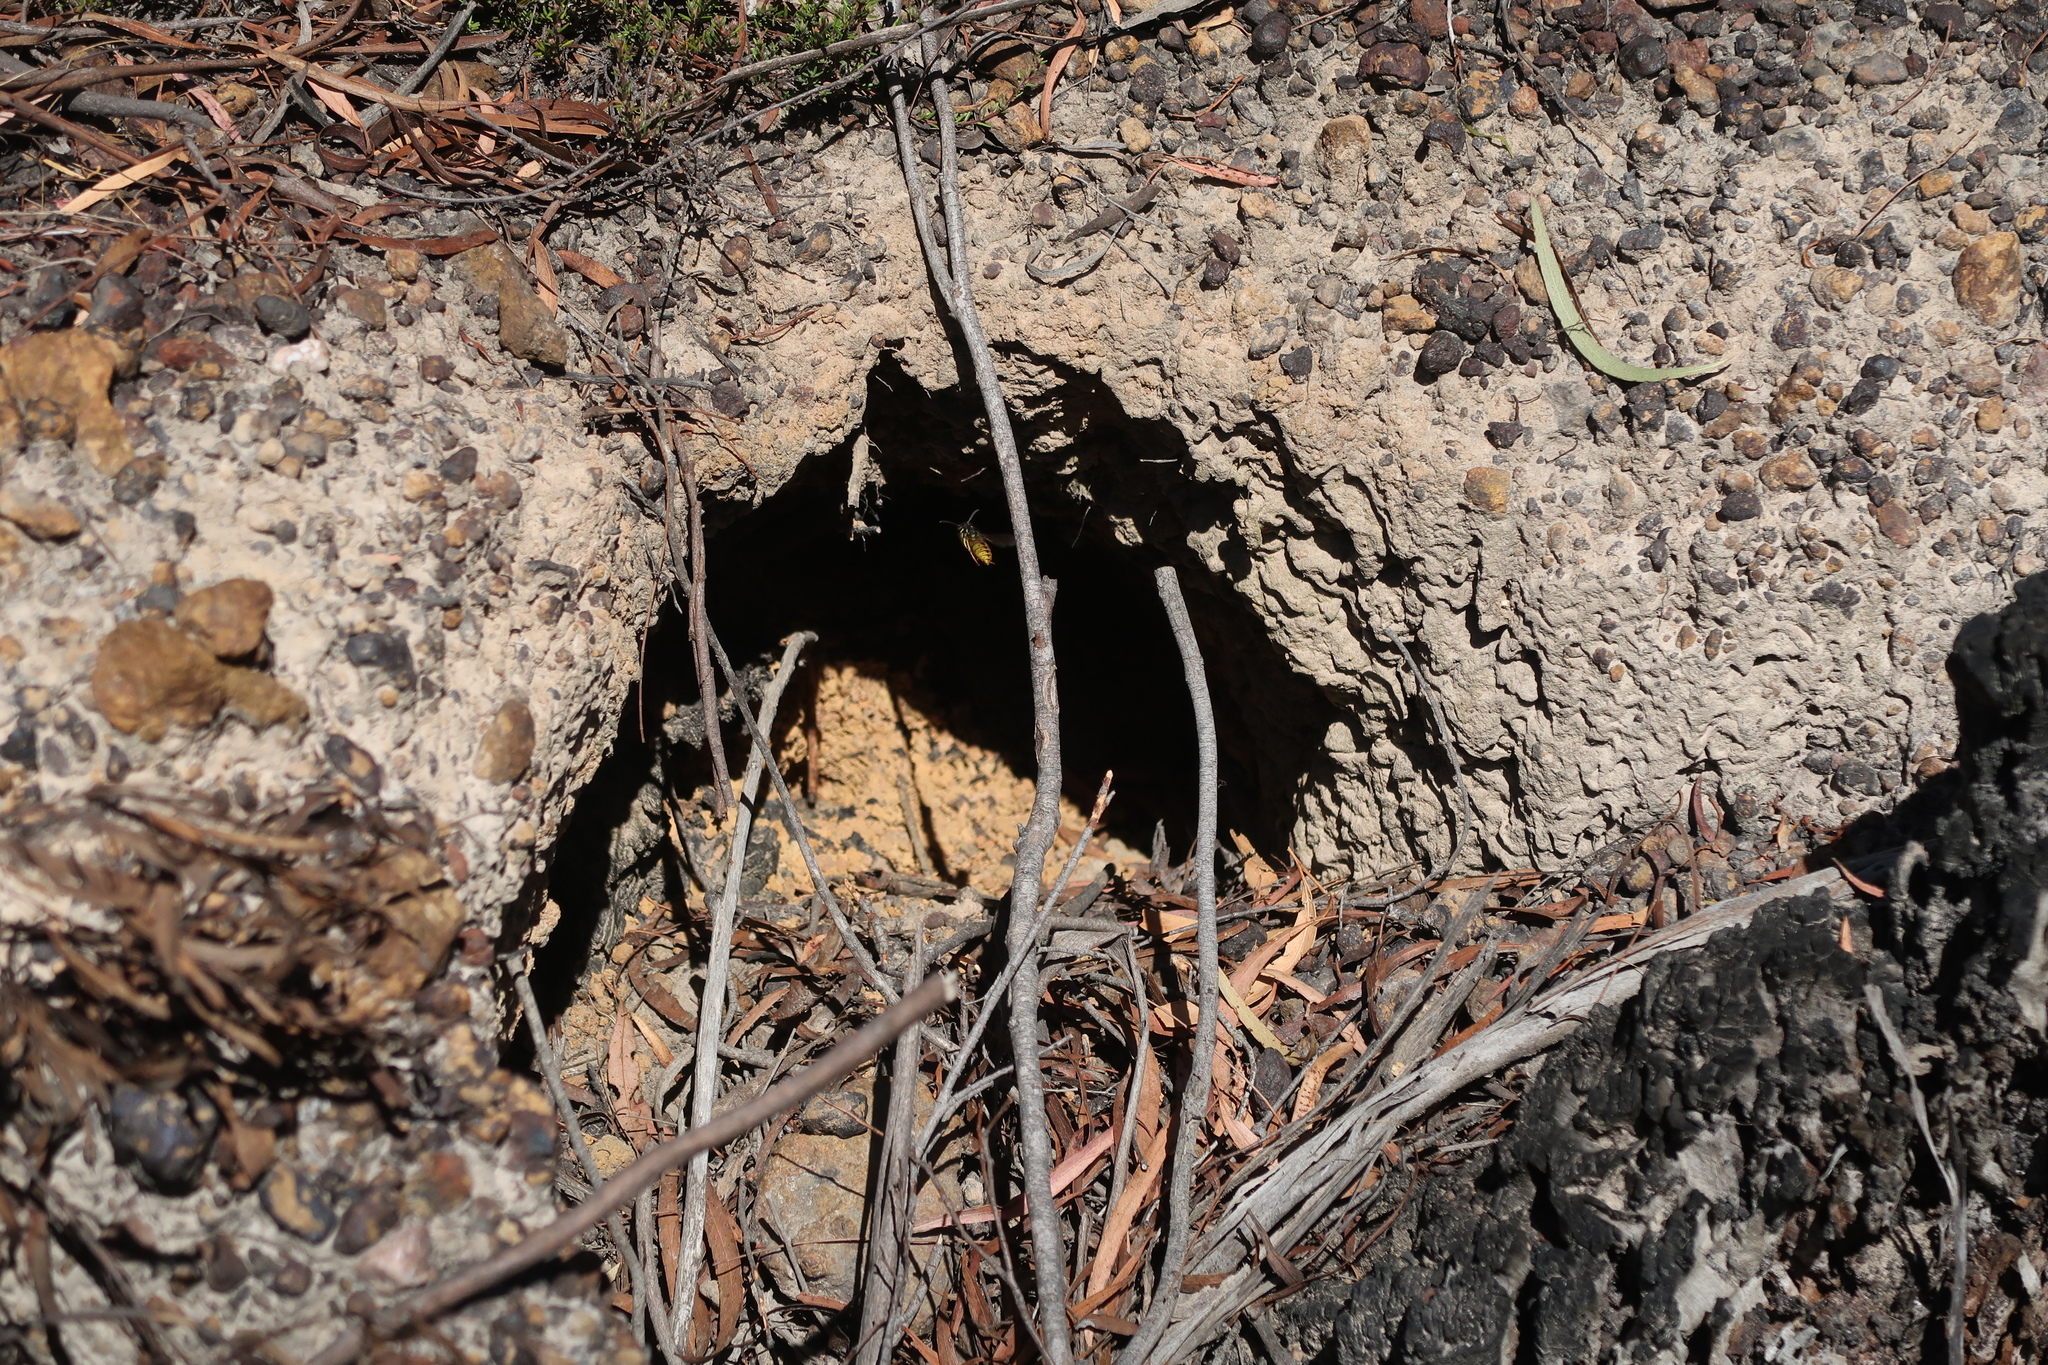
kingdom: Animalia
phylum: Arthropoda
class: Insecta
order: Hymenoptera
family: Vespidae
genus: Vespula
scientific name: Vespula germanica
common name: German wasp
